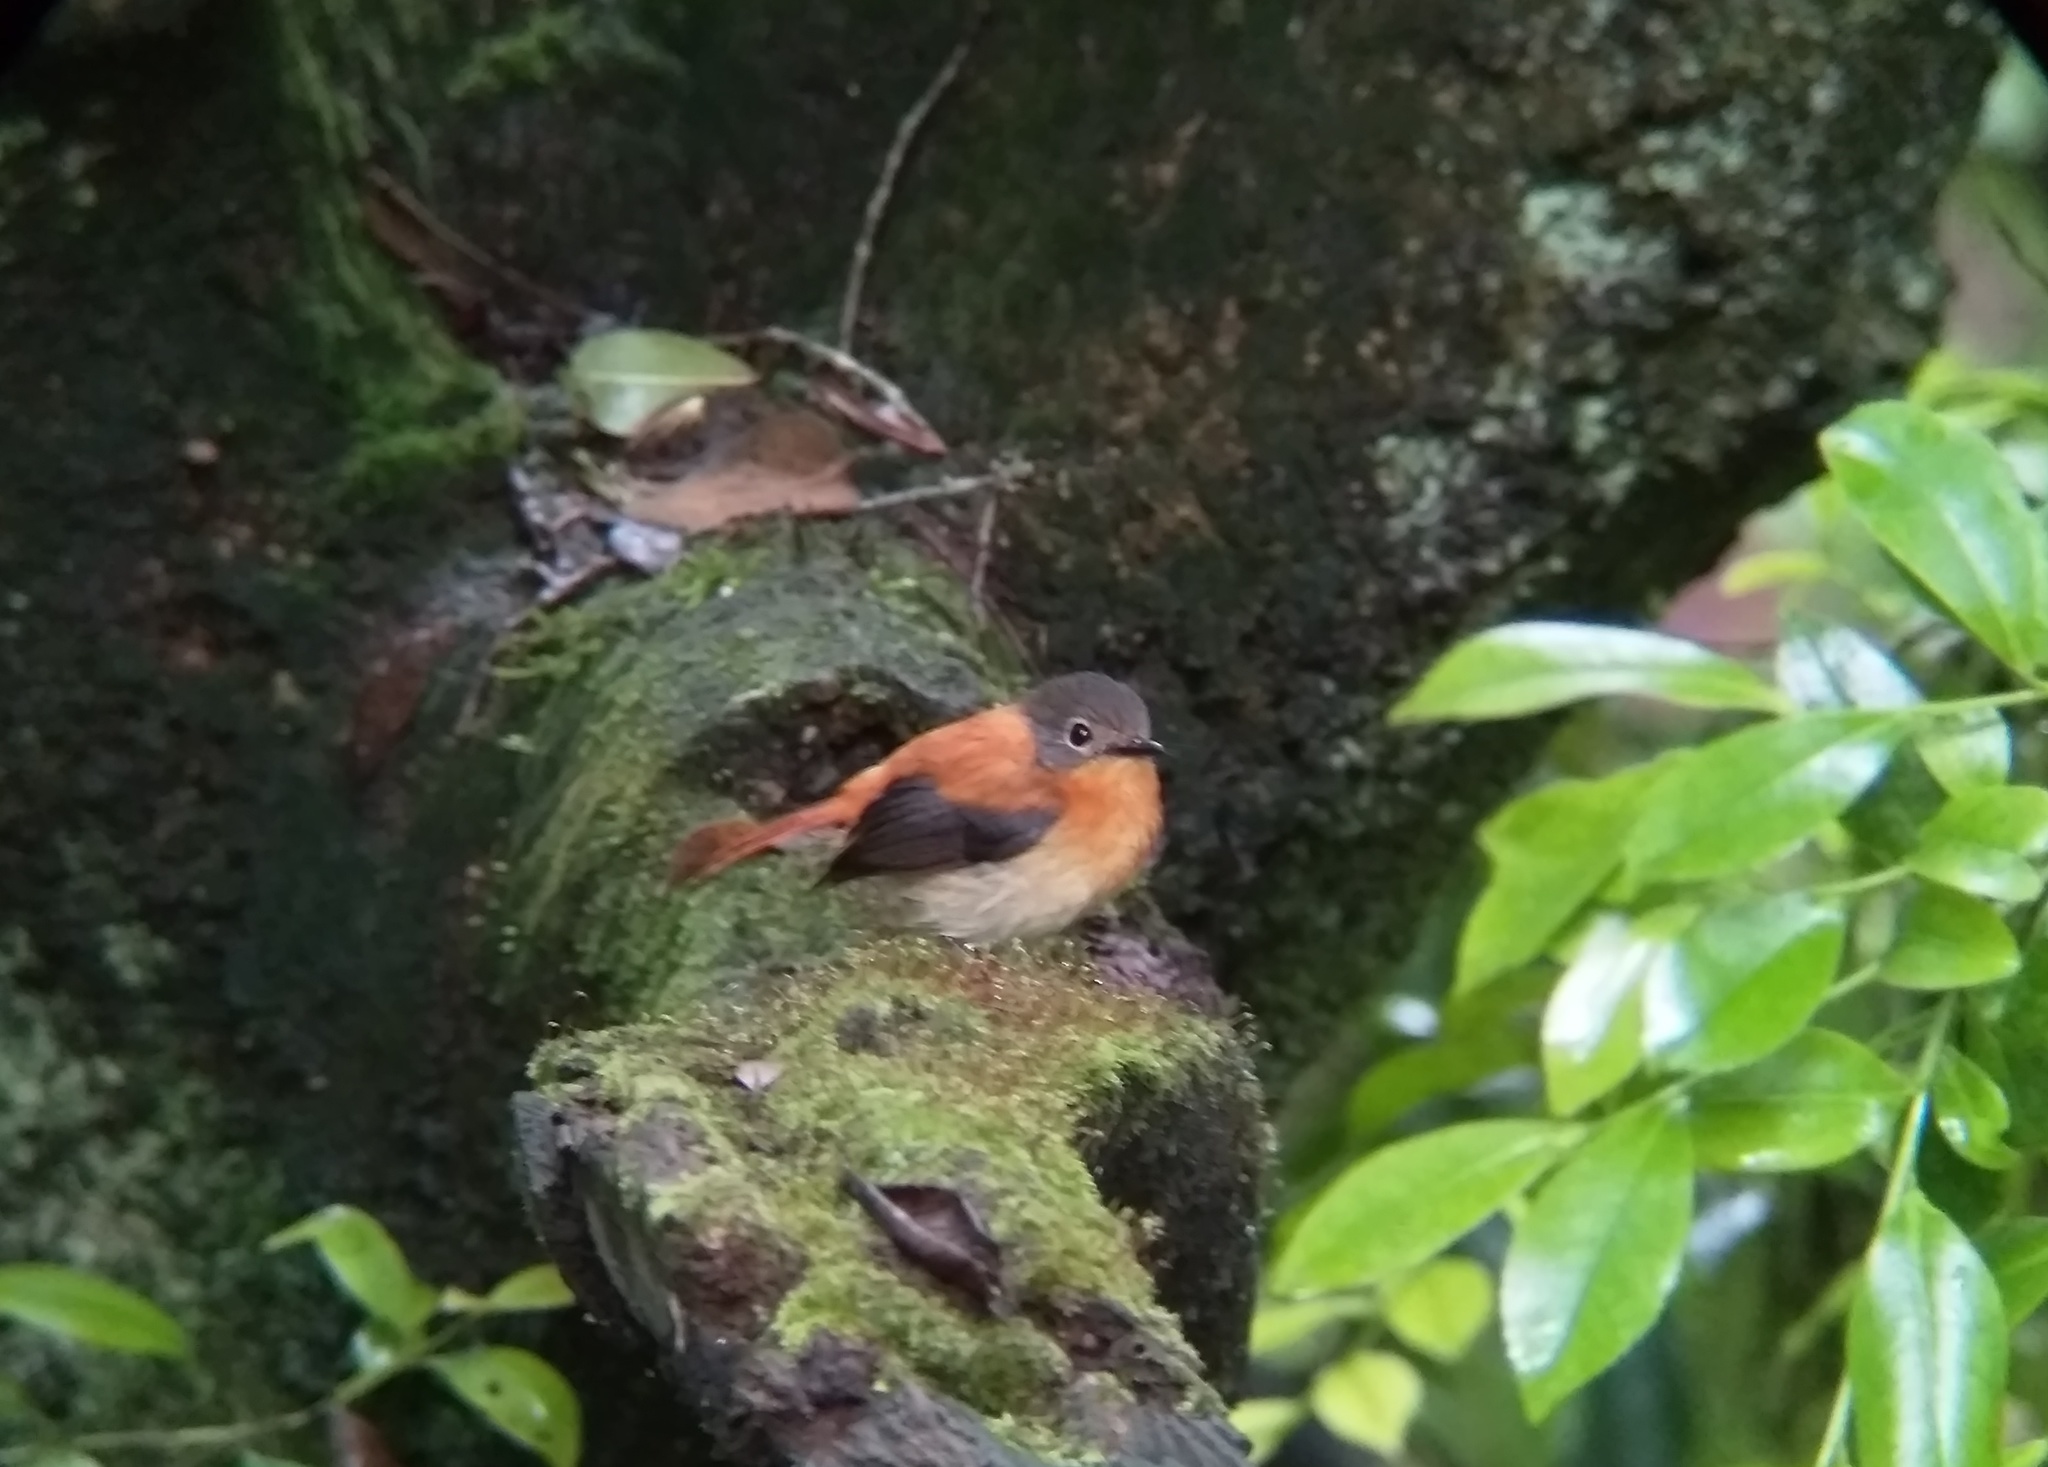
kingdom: Animalia
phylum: Chordata
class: Aves
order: Passeriformes
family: Muscicapidae
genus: Ficedula
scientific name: Ficedula nigrorufa
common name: Black-and-orange flycatcher
